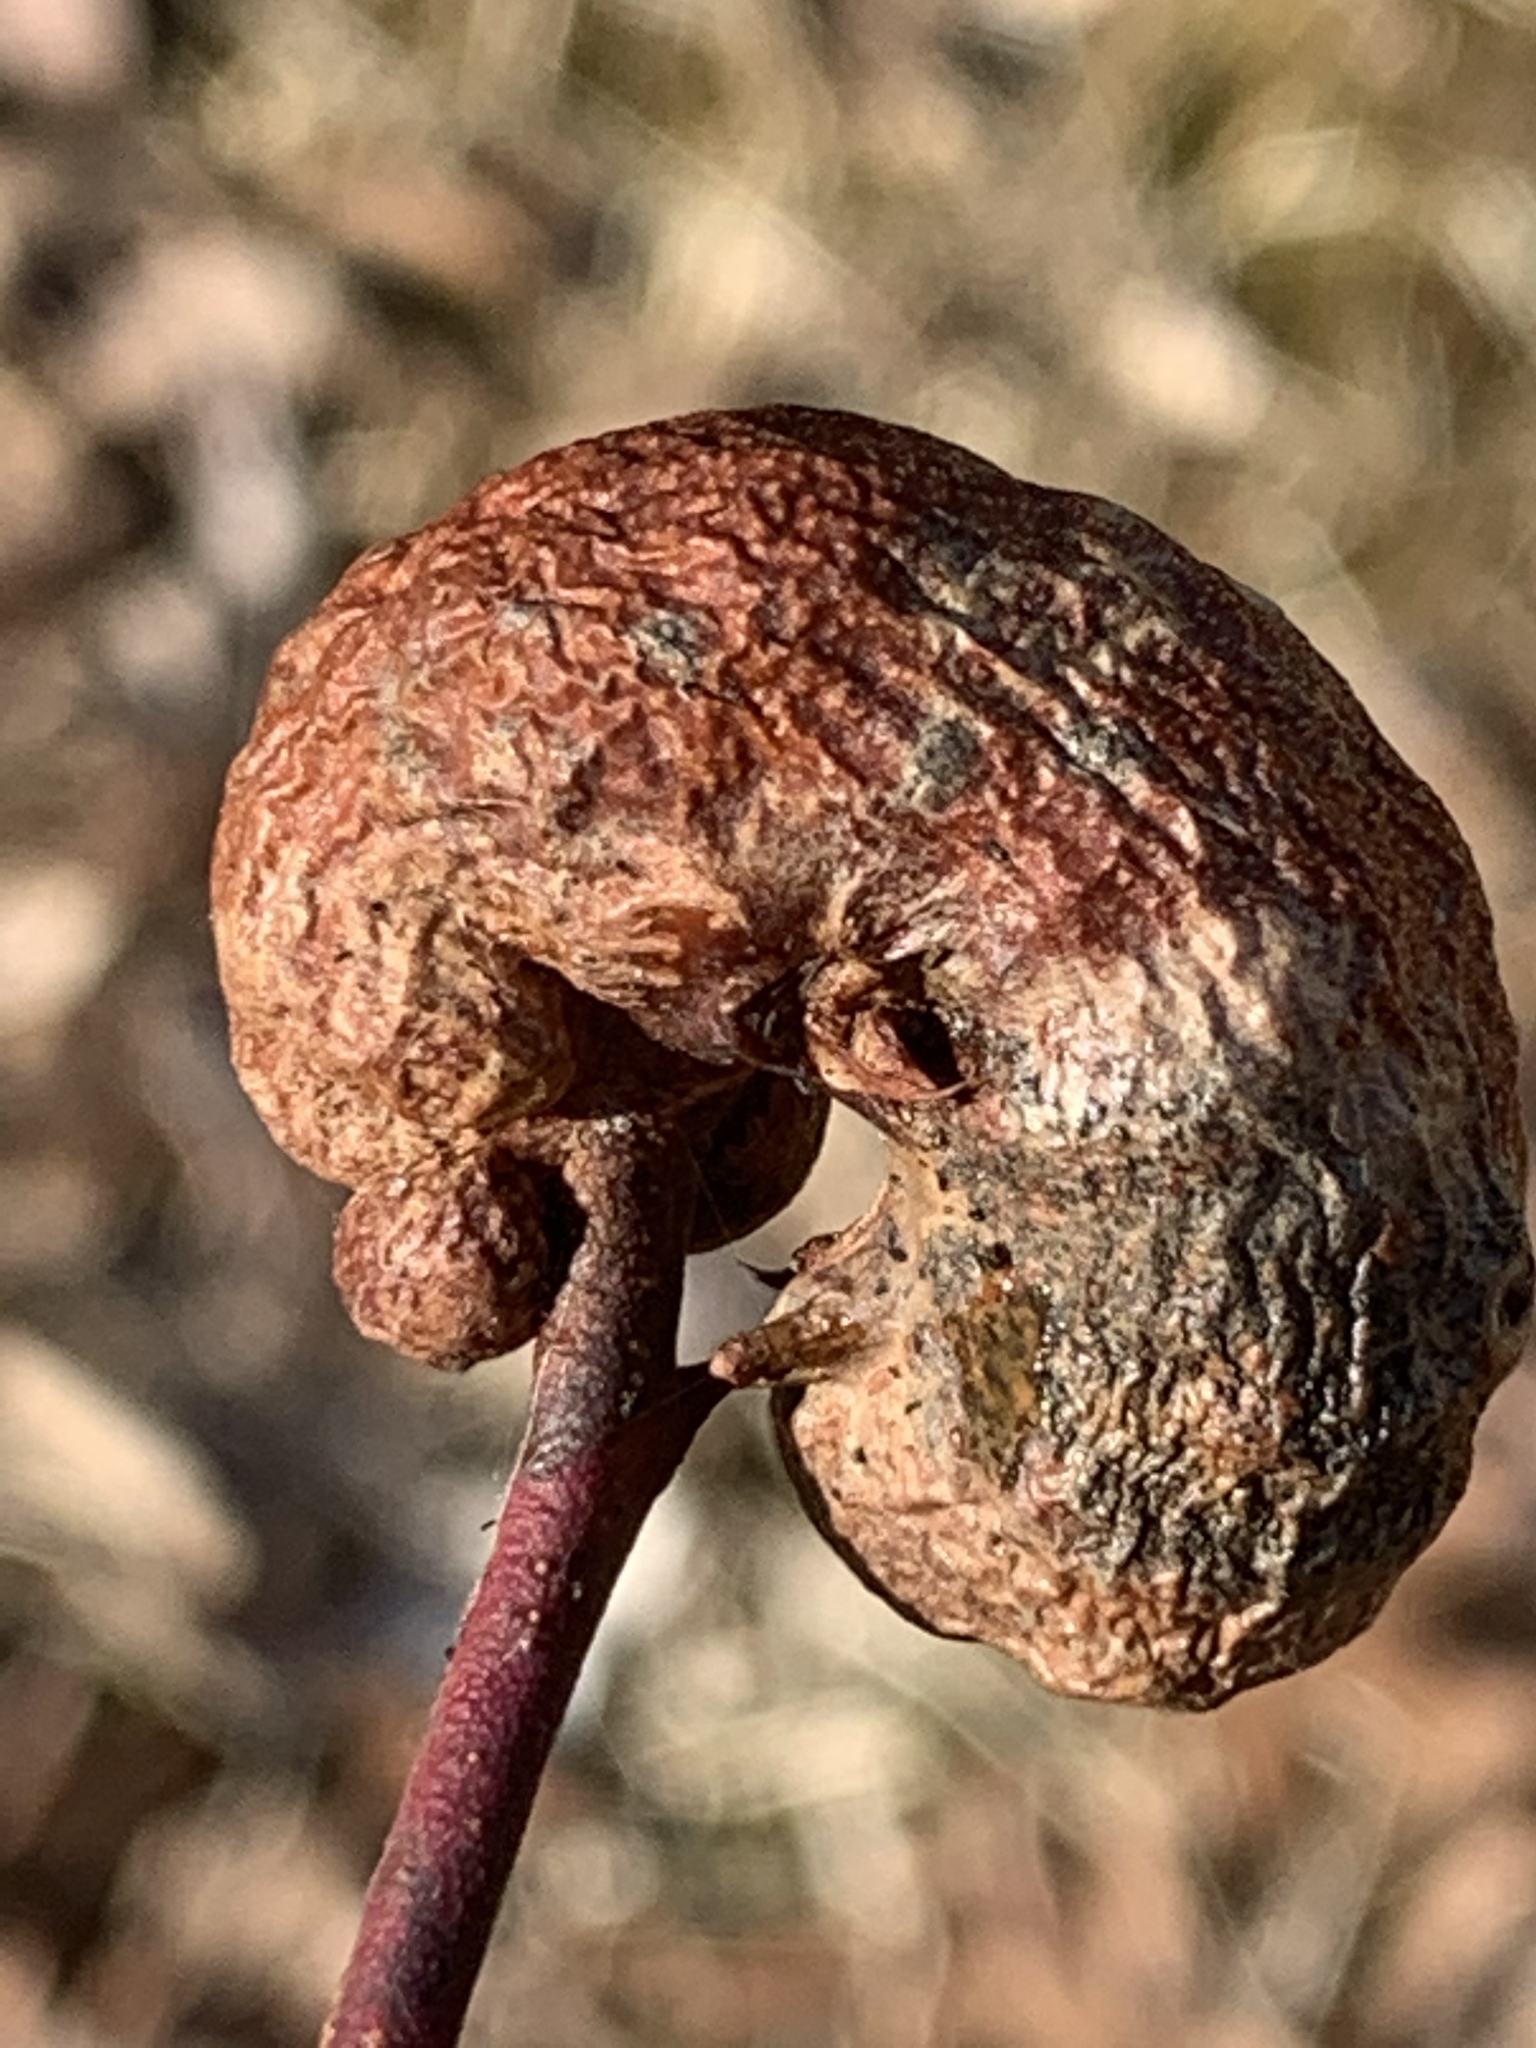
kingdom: Animalia
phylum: Arthropoda
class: Insecta
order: Hymenoptera
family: Pteromalidae
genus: Hemadas
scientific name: Hemadas nubilipennis
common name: Blueberry stem gall wasp
